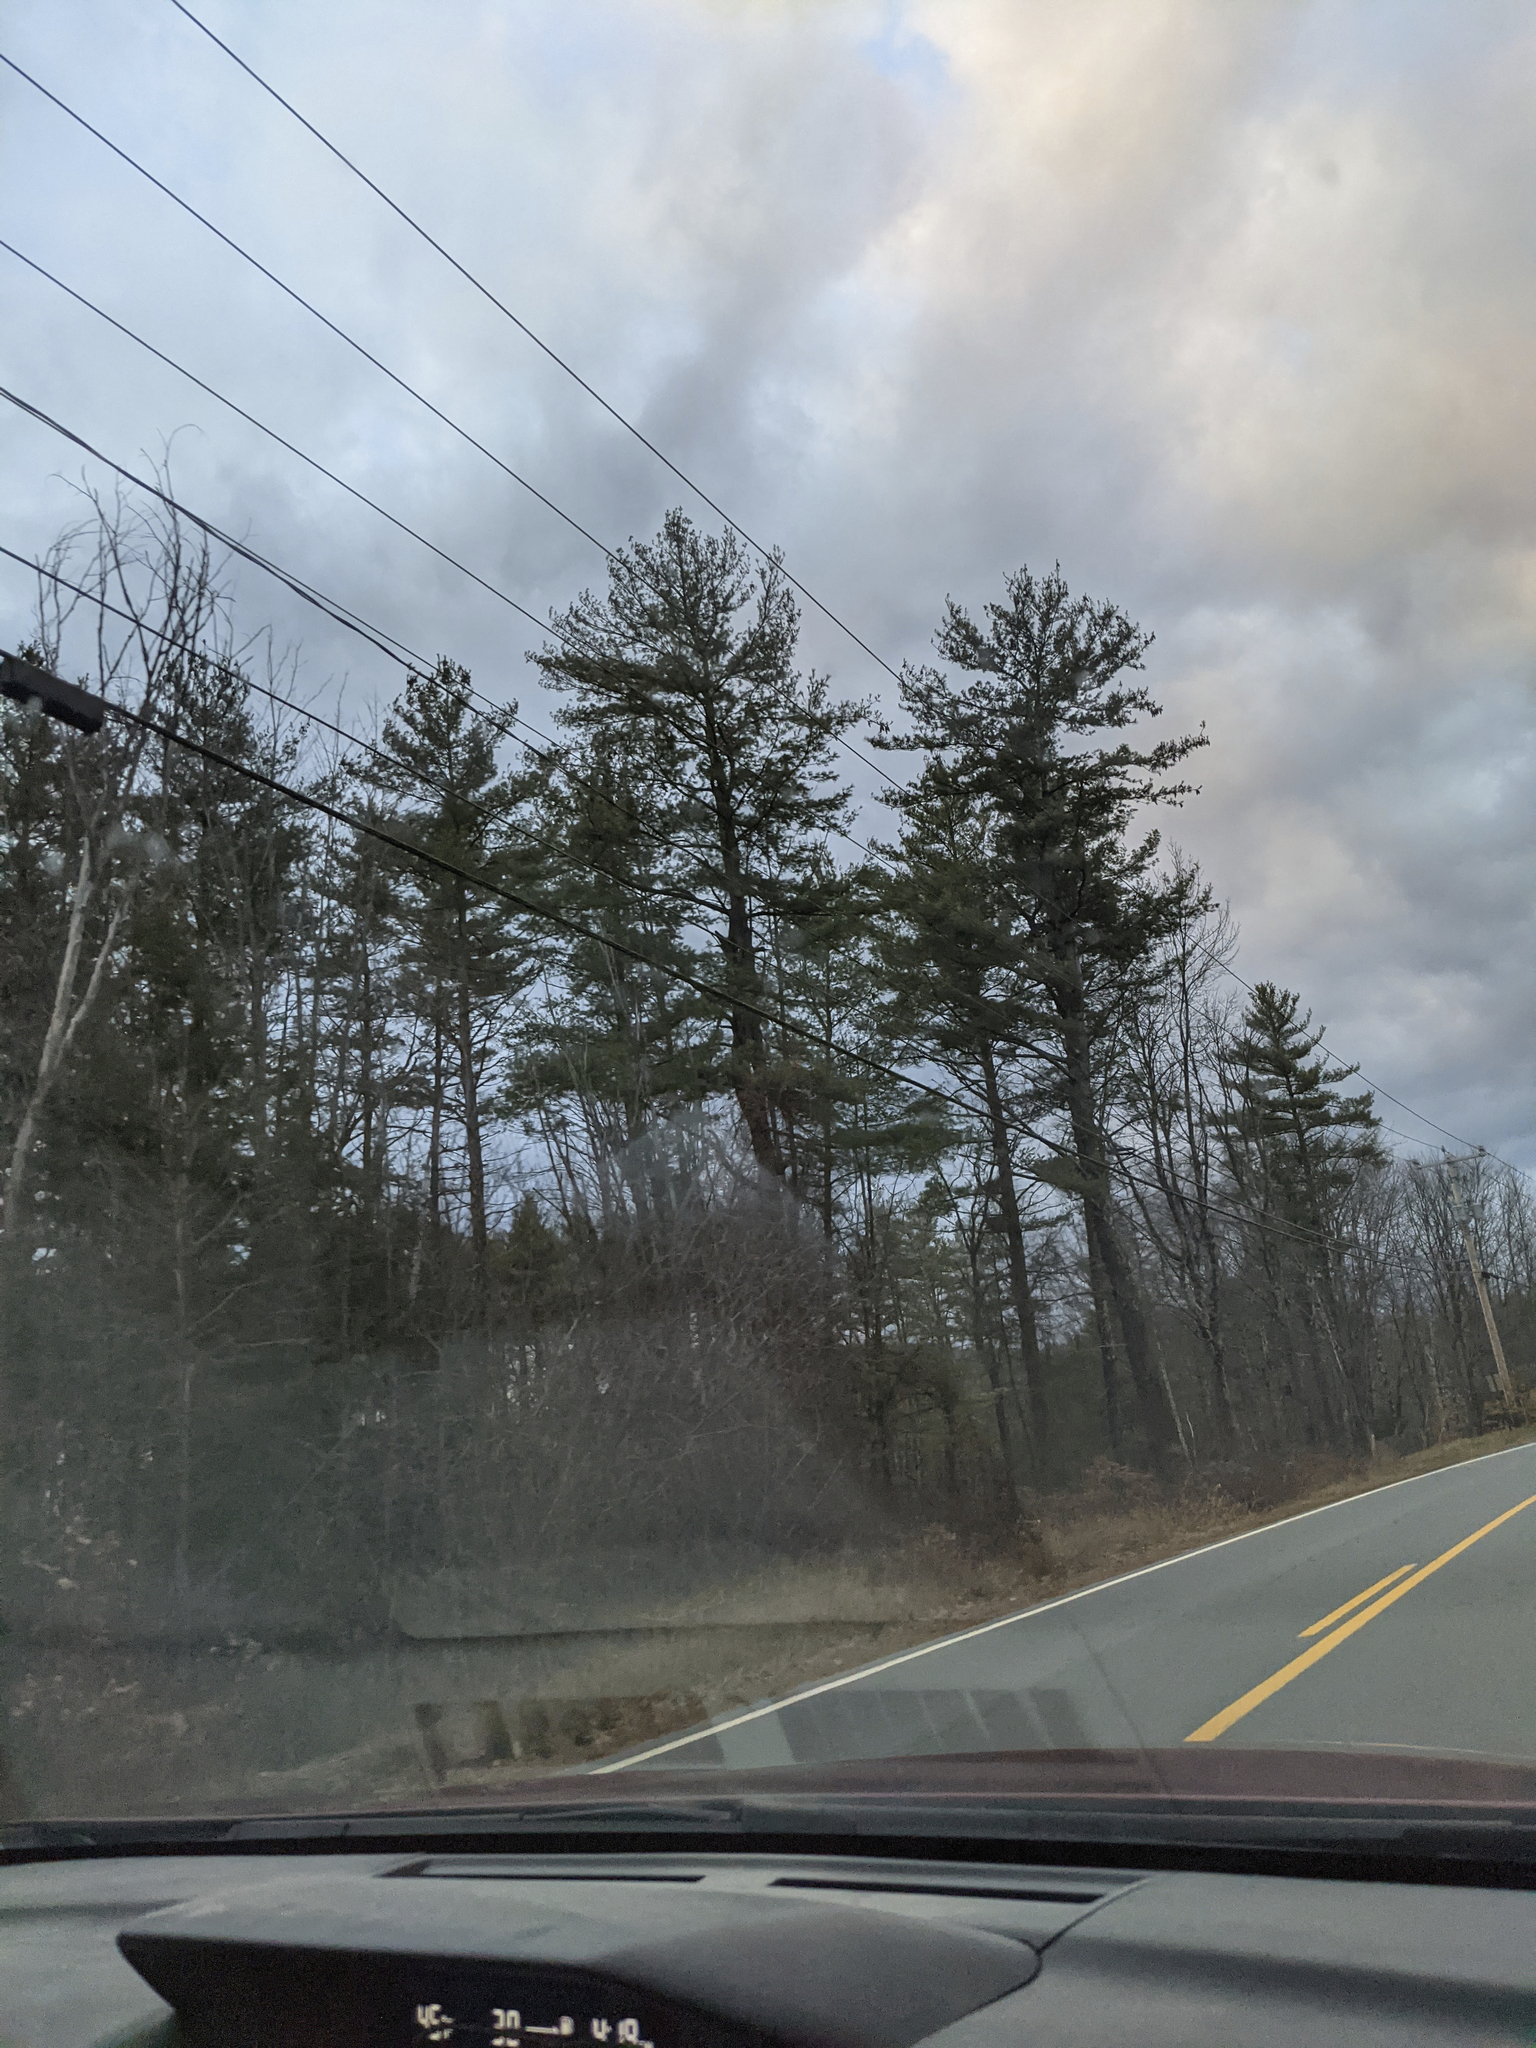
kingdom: Plantae
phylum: Tracheophyta
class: Pinopsida
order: Pinales
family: Pinaceae
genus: Pinus
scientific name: Pinus strobus
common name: Weymouth pine
